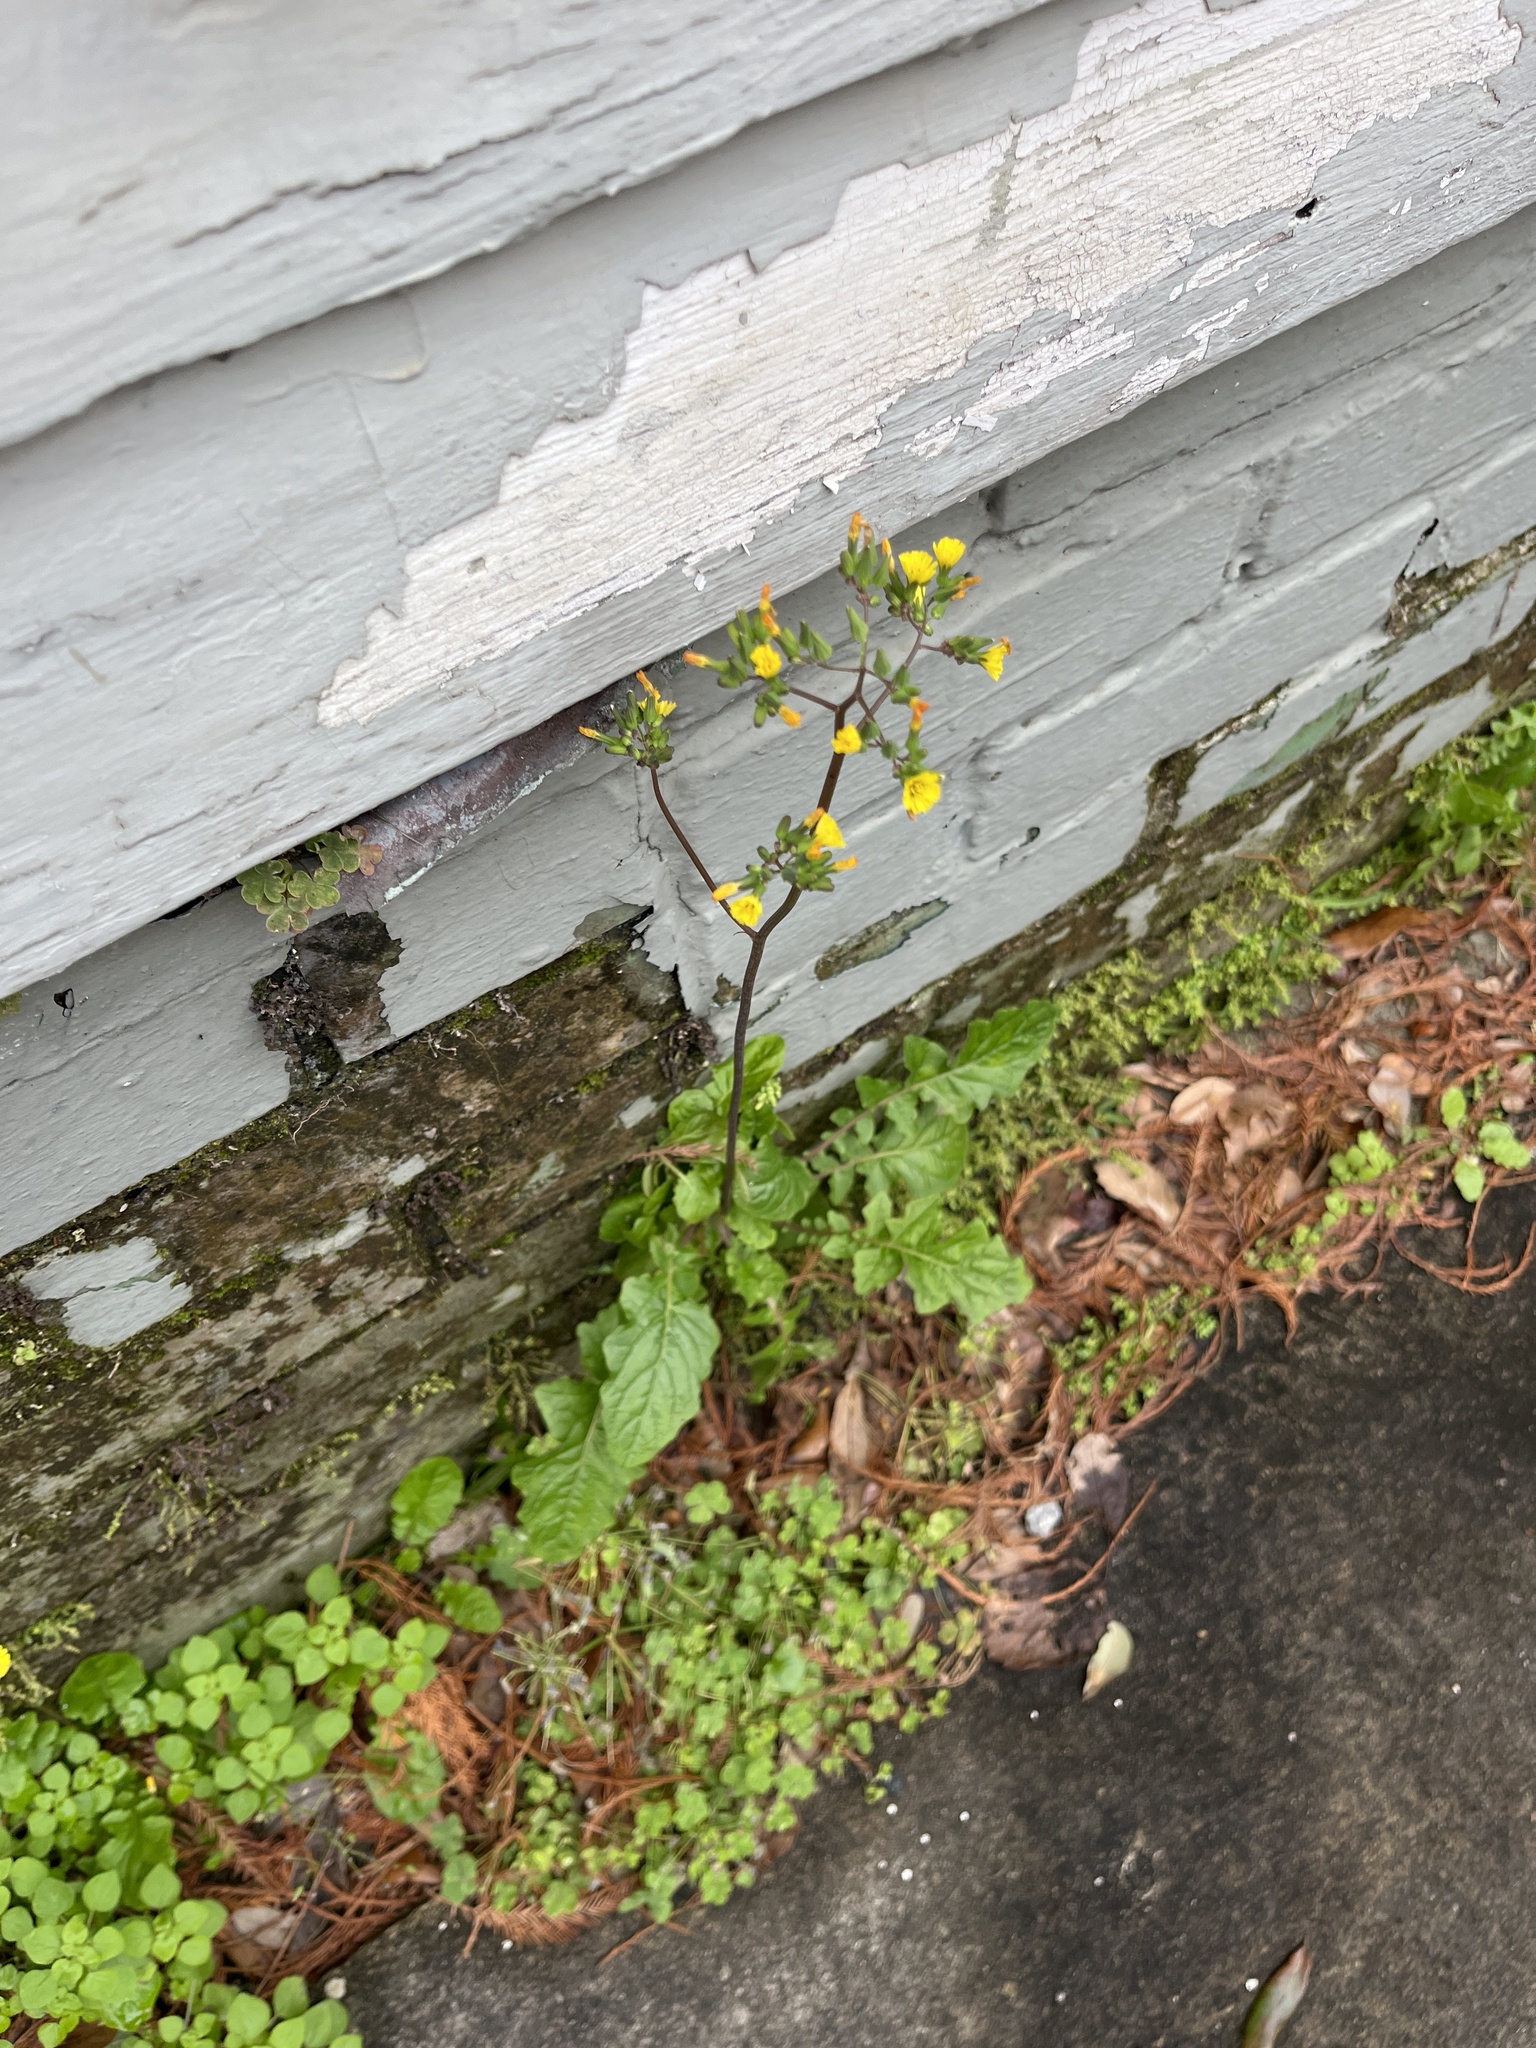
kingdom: Plantae
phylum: Tracheophyta
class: Magnoliopsida
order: Asterales
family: Asteraceae
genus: Youngia
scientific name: Youngia japonica
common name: Oriental false hawksbeard
